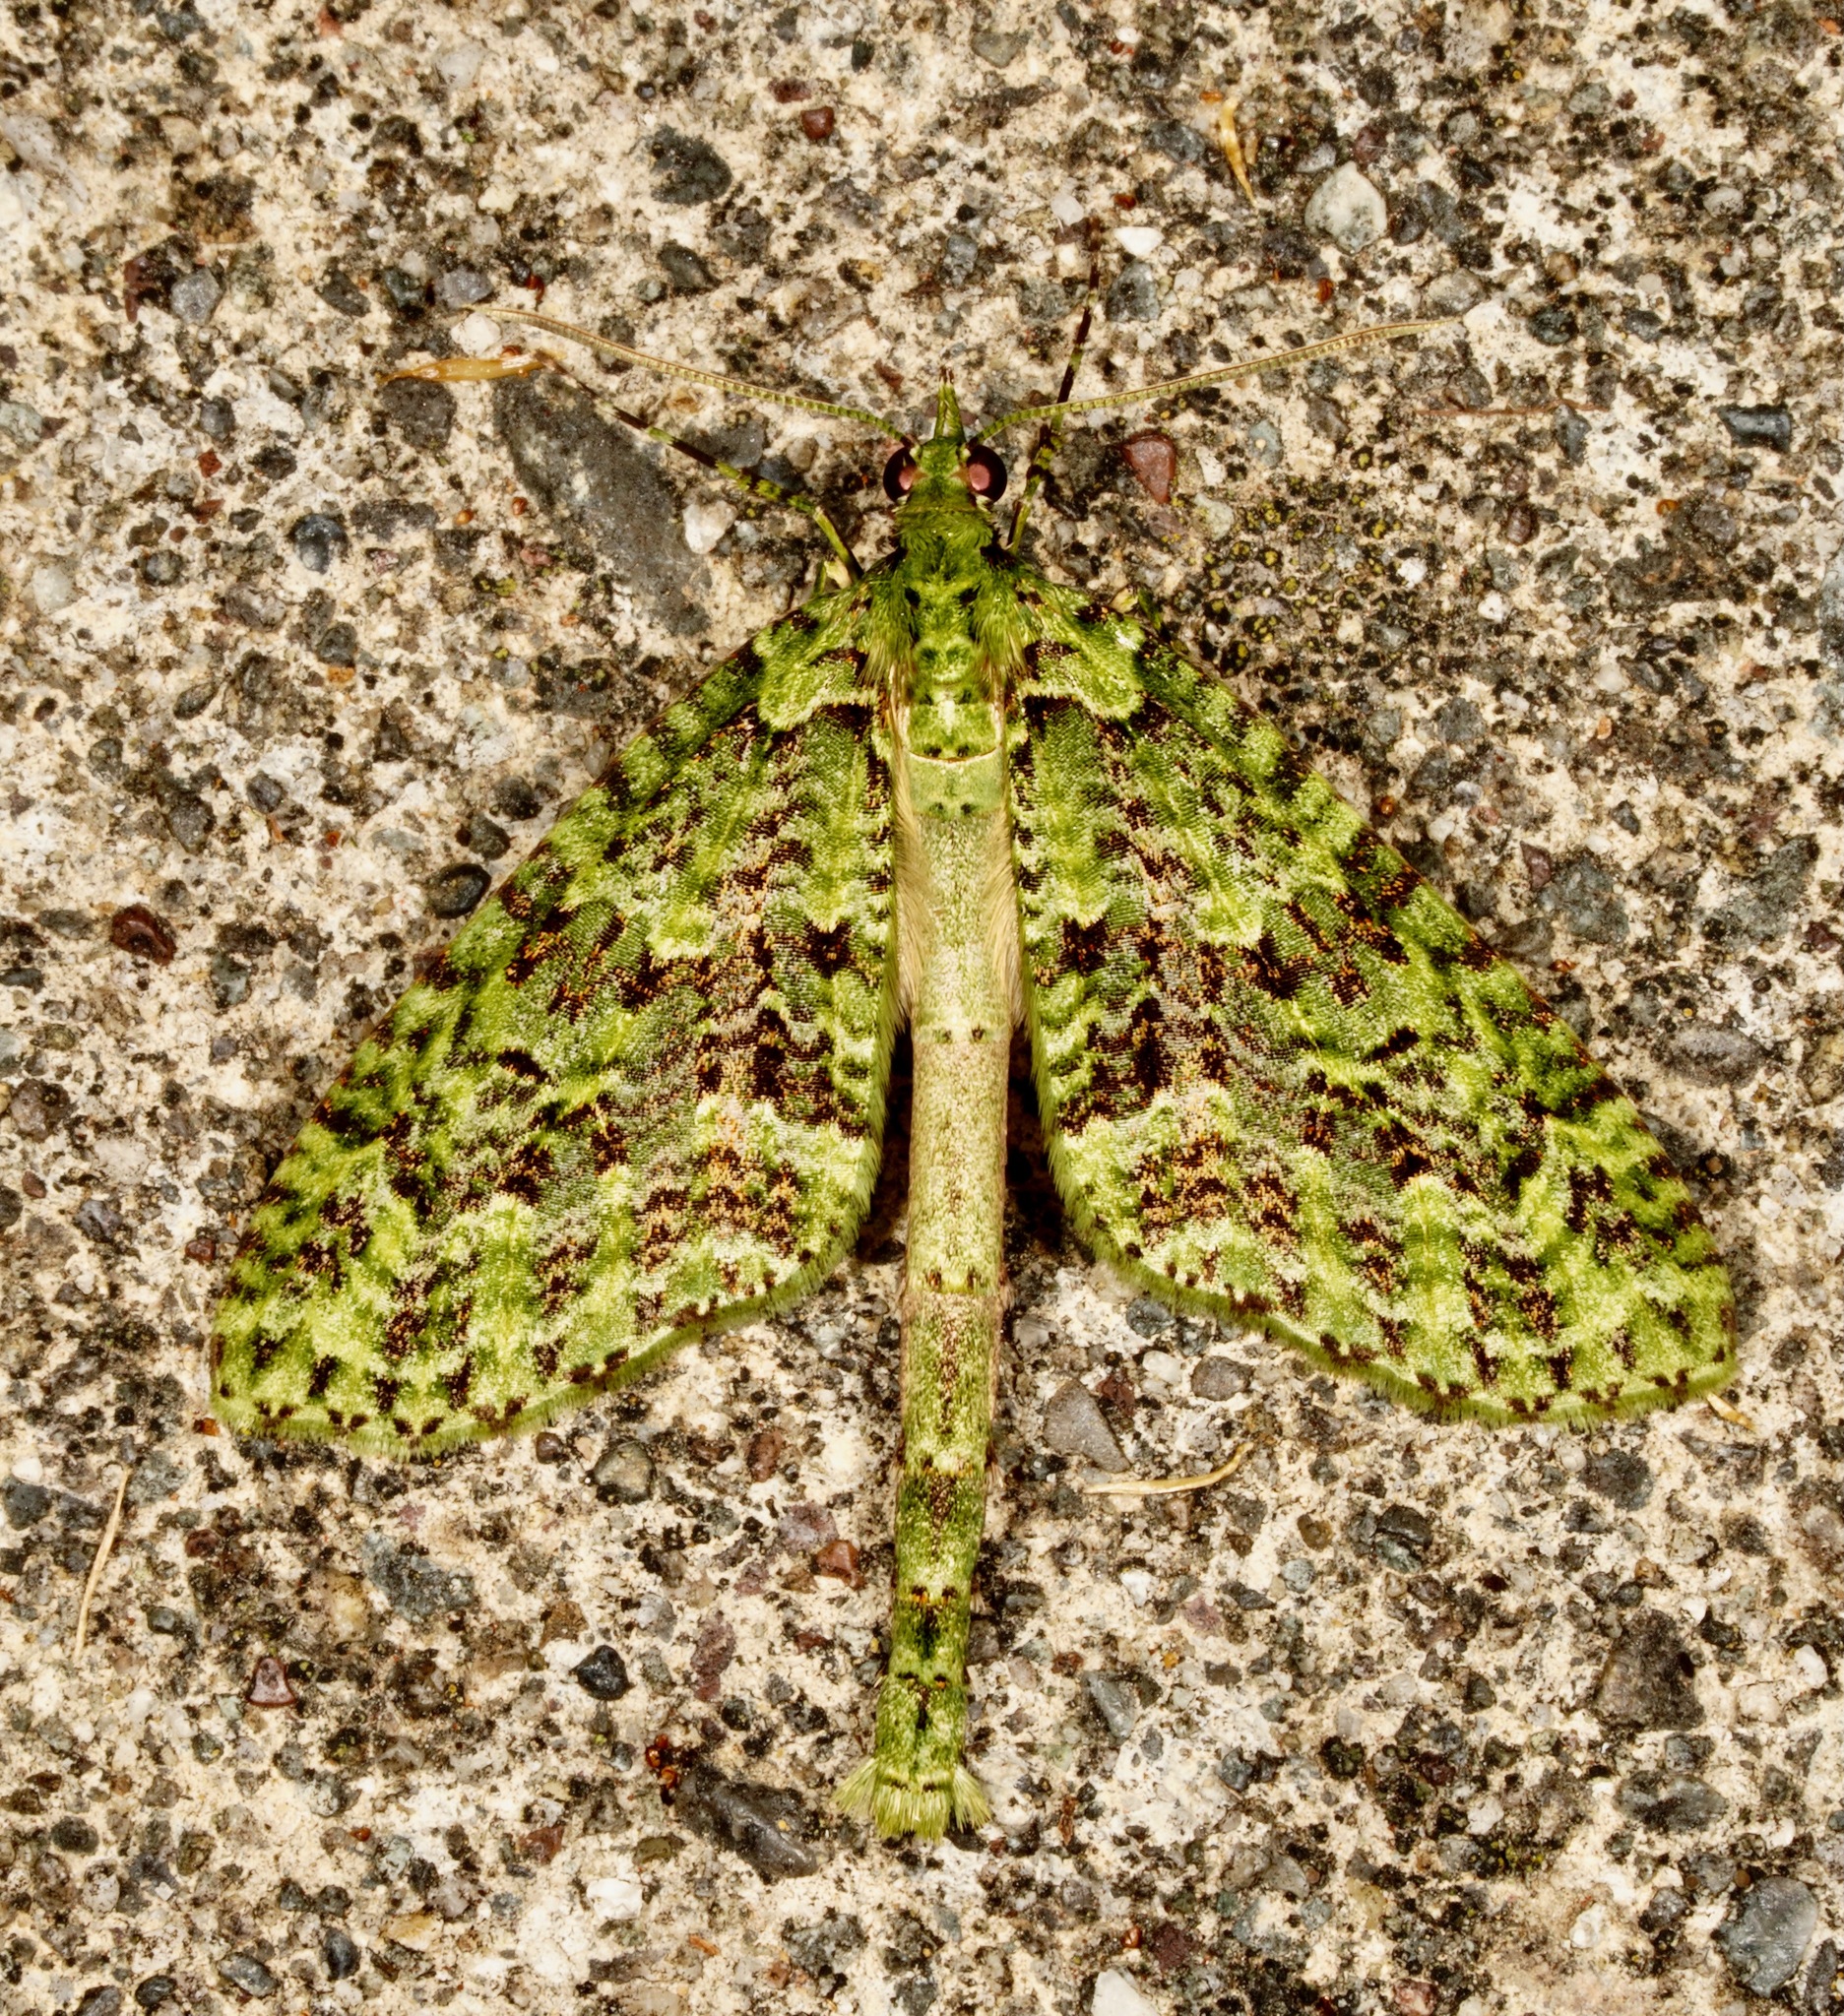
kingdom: Animalia
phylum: Arthropoda
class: Insecta
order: Lepidoptera
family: Geometridae
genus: Tatosoma
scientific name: Tatosoma tipulata
